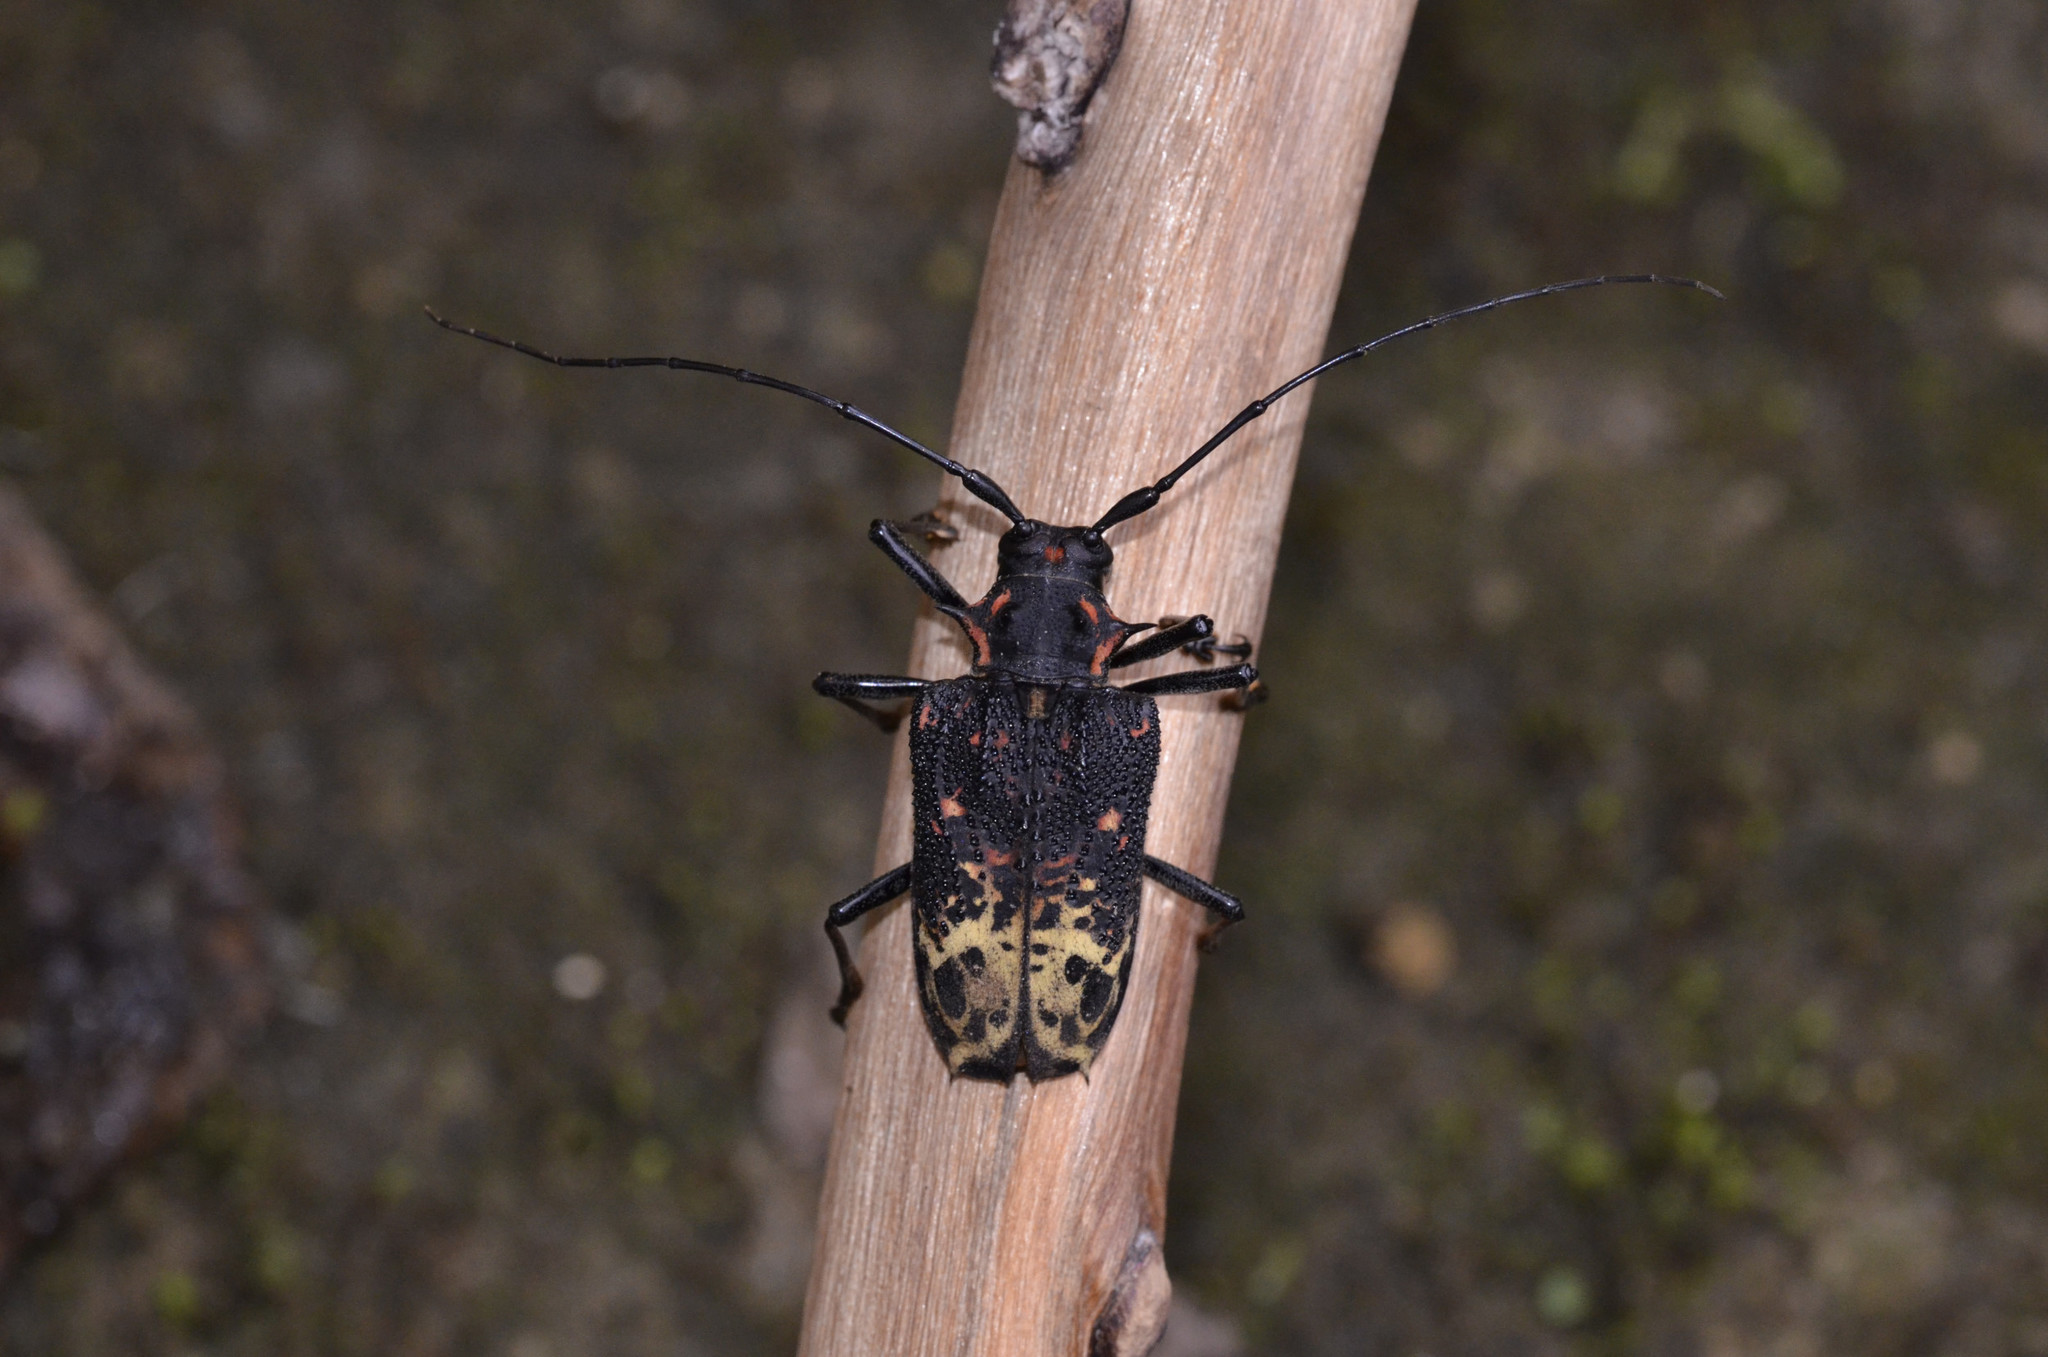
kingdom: Animalia
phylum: Arthropoda
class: Insecta
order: Coleoptera
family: Cerambycidae
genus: Polyrhaphis
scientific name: Polyrhaphis belti
